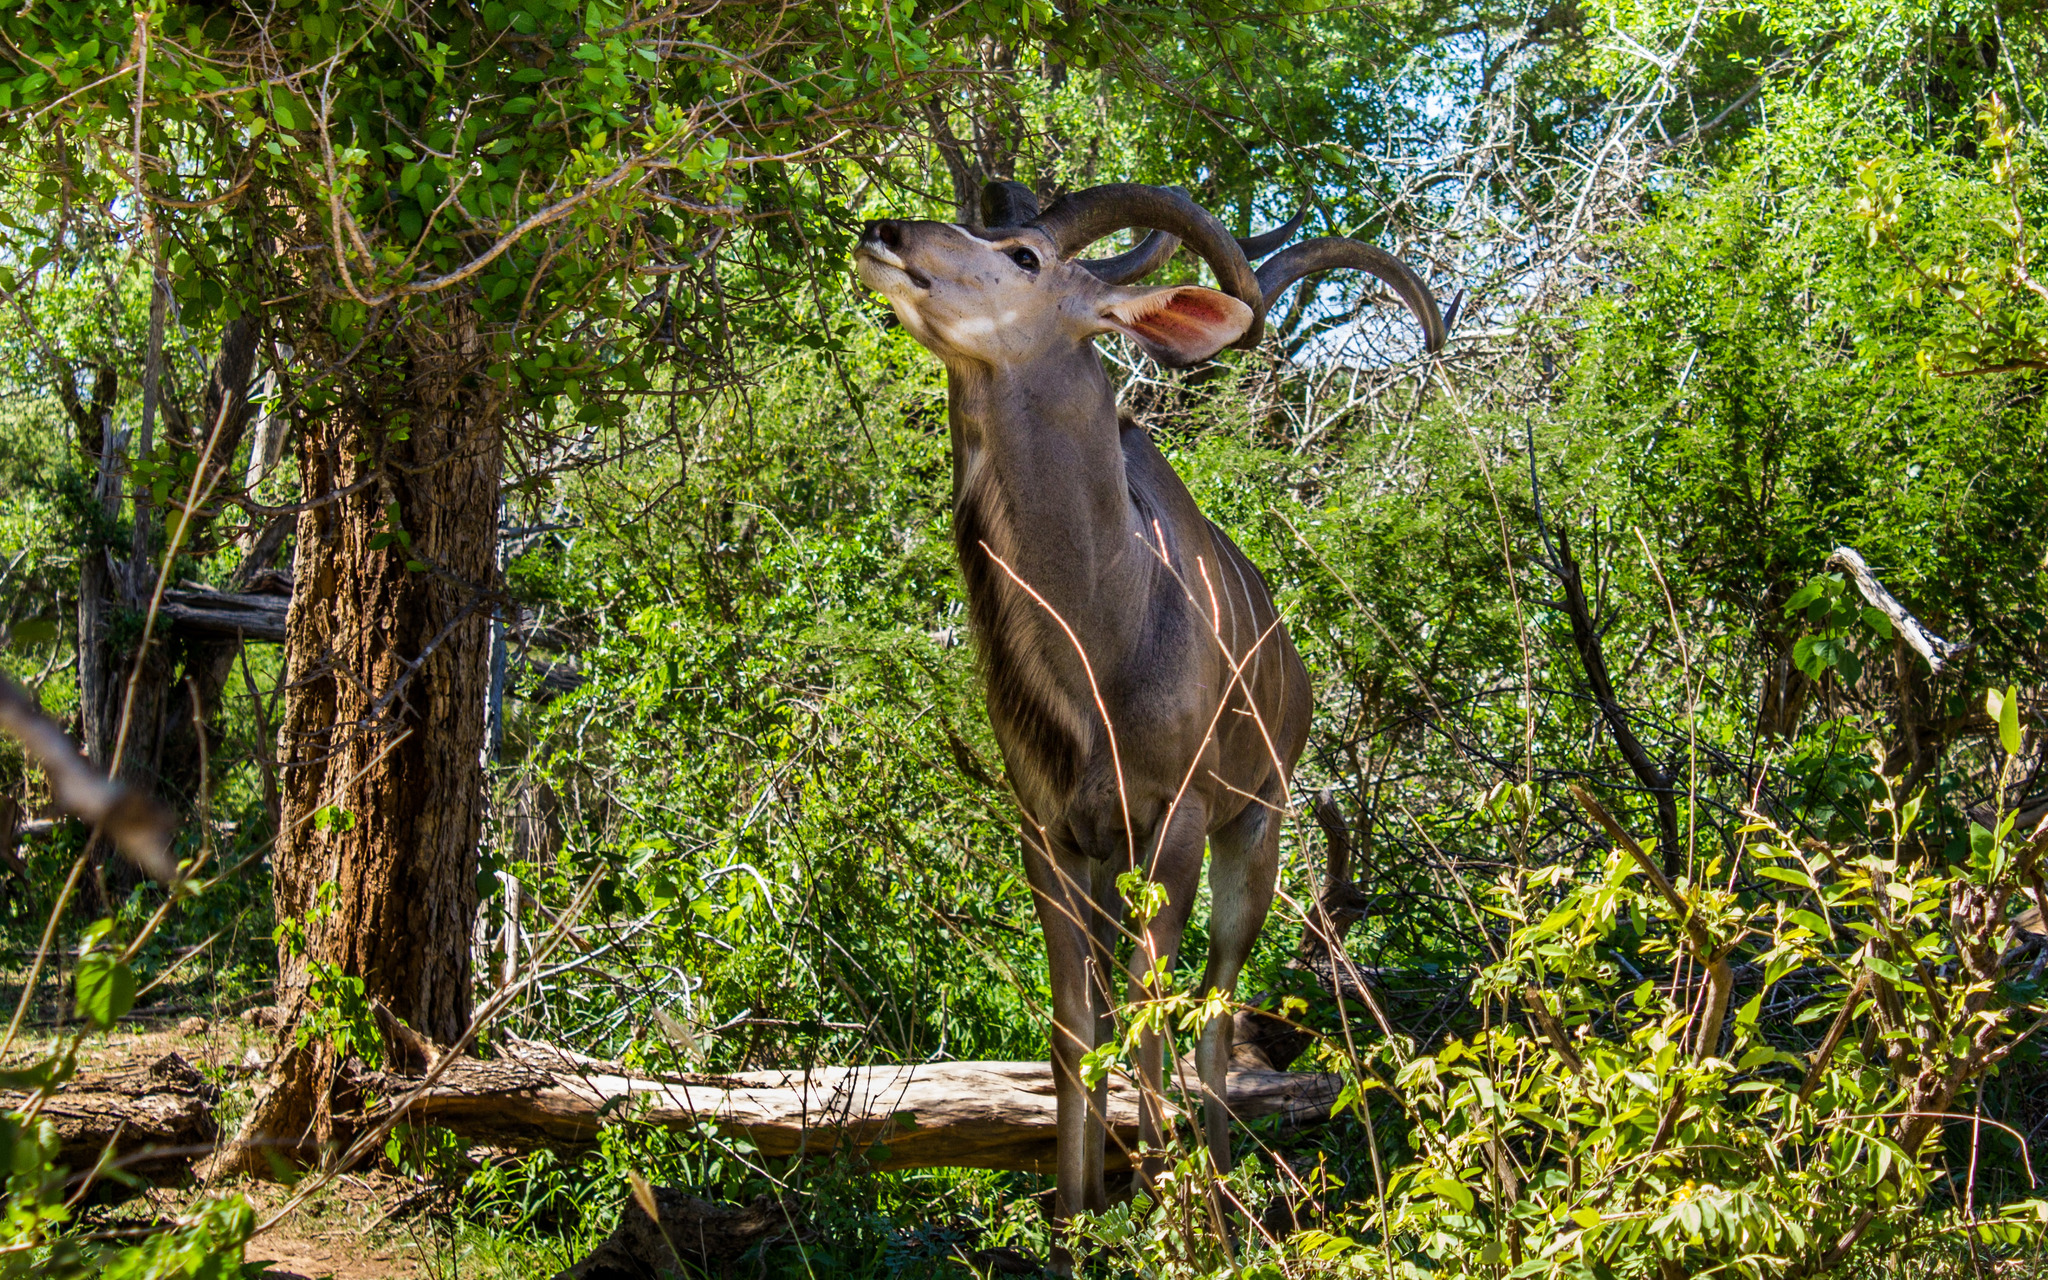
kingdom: Animalia
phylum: Chordata
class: Mammalia
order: Artiodactyla
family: Bovidae
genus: Tragelaphus
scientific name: Tragelaphus strepsiceros
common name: Greater kudu
